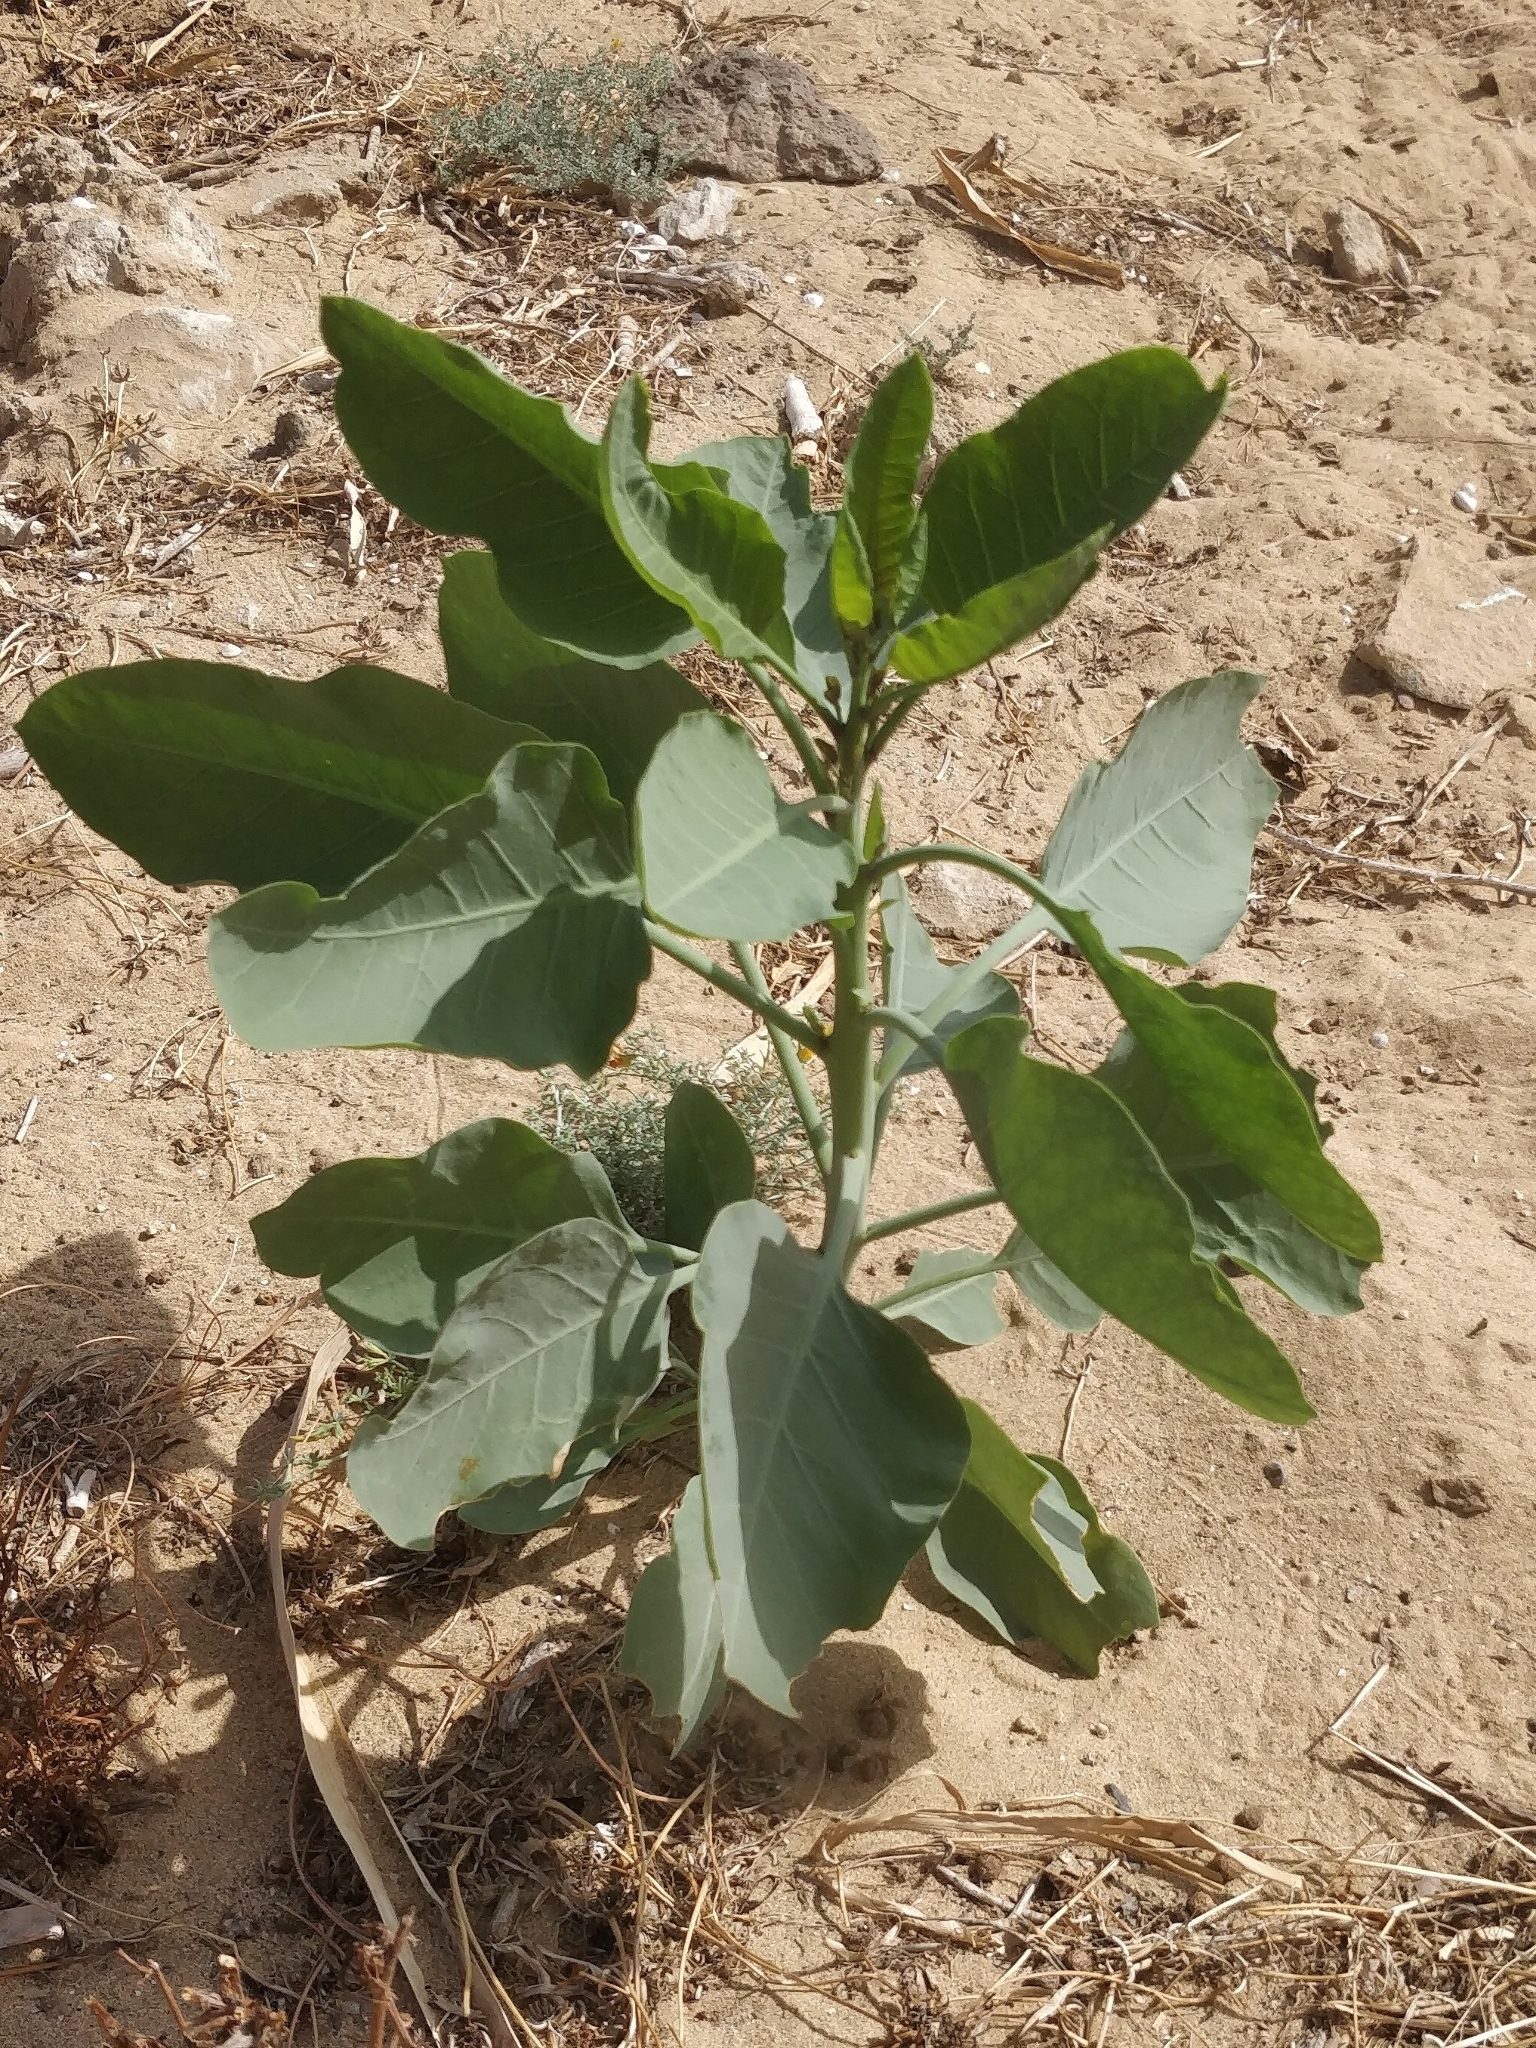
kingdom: Plantae
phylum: Tracheophyta
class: Magnoliopsida
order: Solanales
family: Solanaceae
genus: Nicotiana
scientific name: Nicotiana glauca
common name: Tree tobacco
